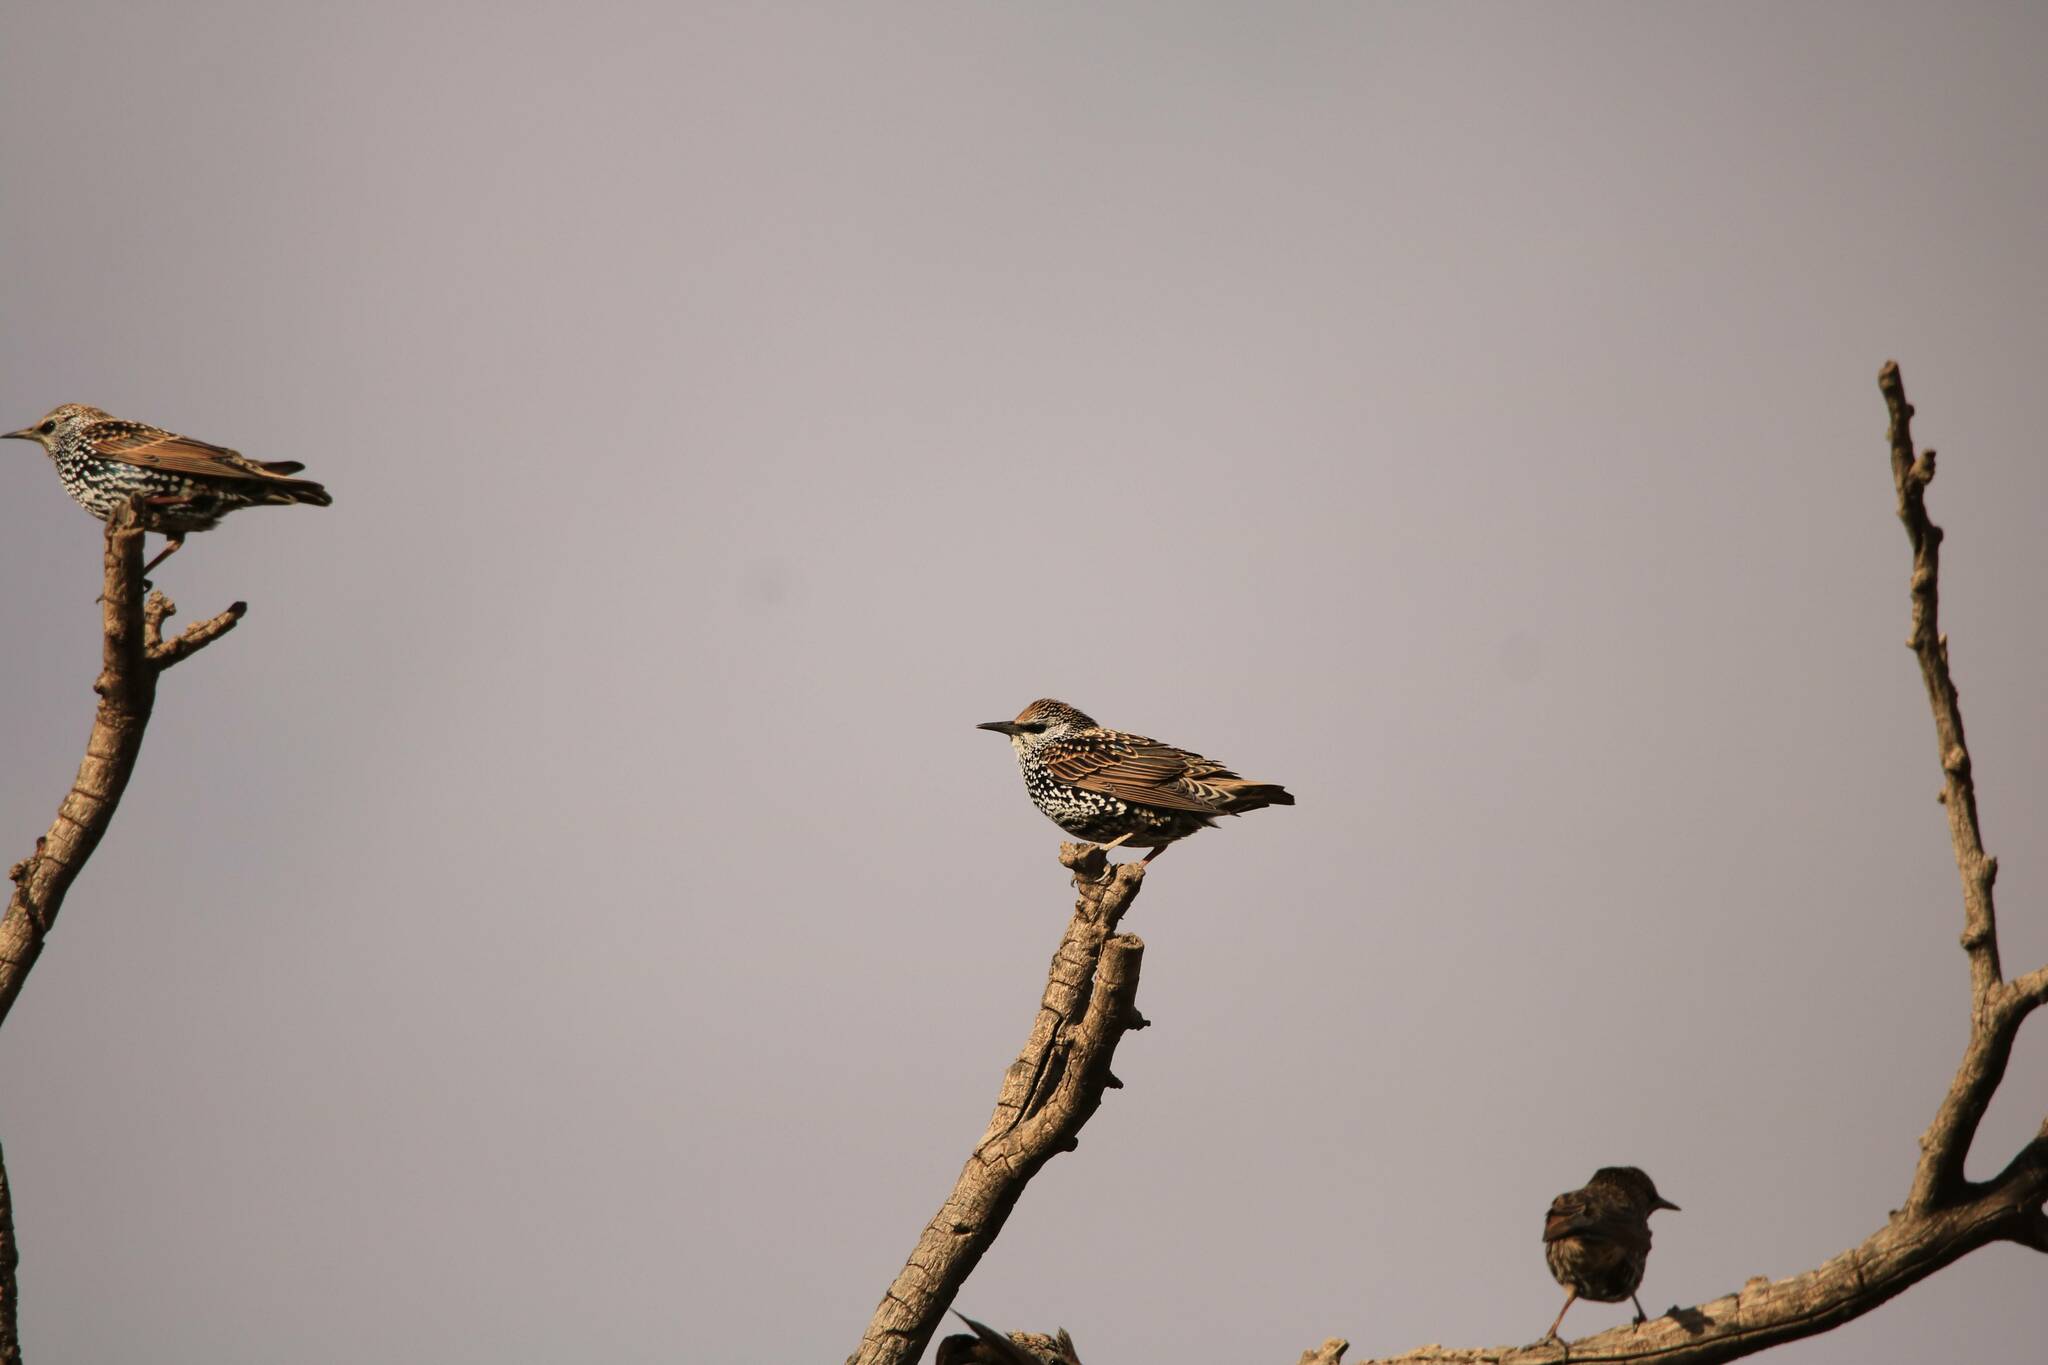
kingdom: Animalia
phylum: Chordata
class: Aves
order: Passeriformes
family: Sturnidae
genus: Sturnus
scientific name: Sturnus vulgaris
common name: Common starling
